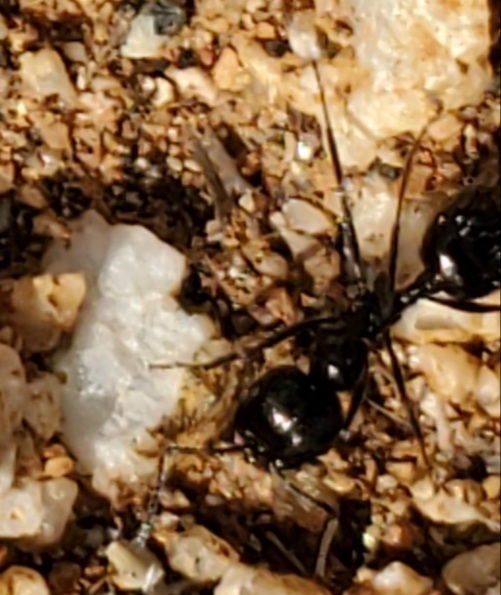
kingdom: Animalia
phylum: Arthropoda
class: Insecta
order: Hymenoptera
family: Formicidae
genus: Messor
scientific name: Messor pergandei
